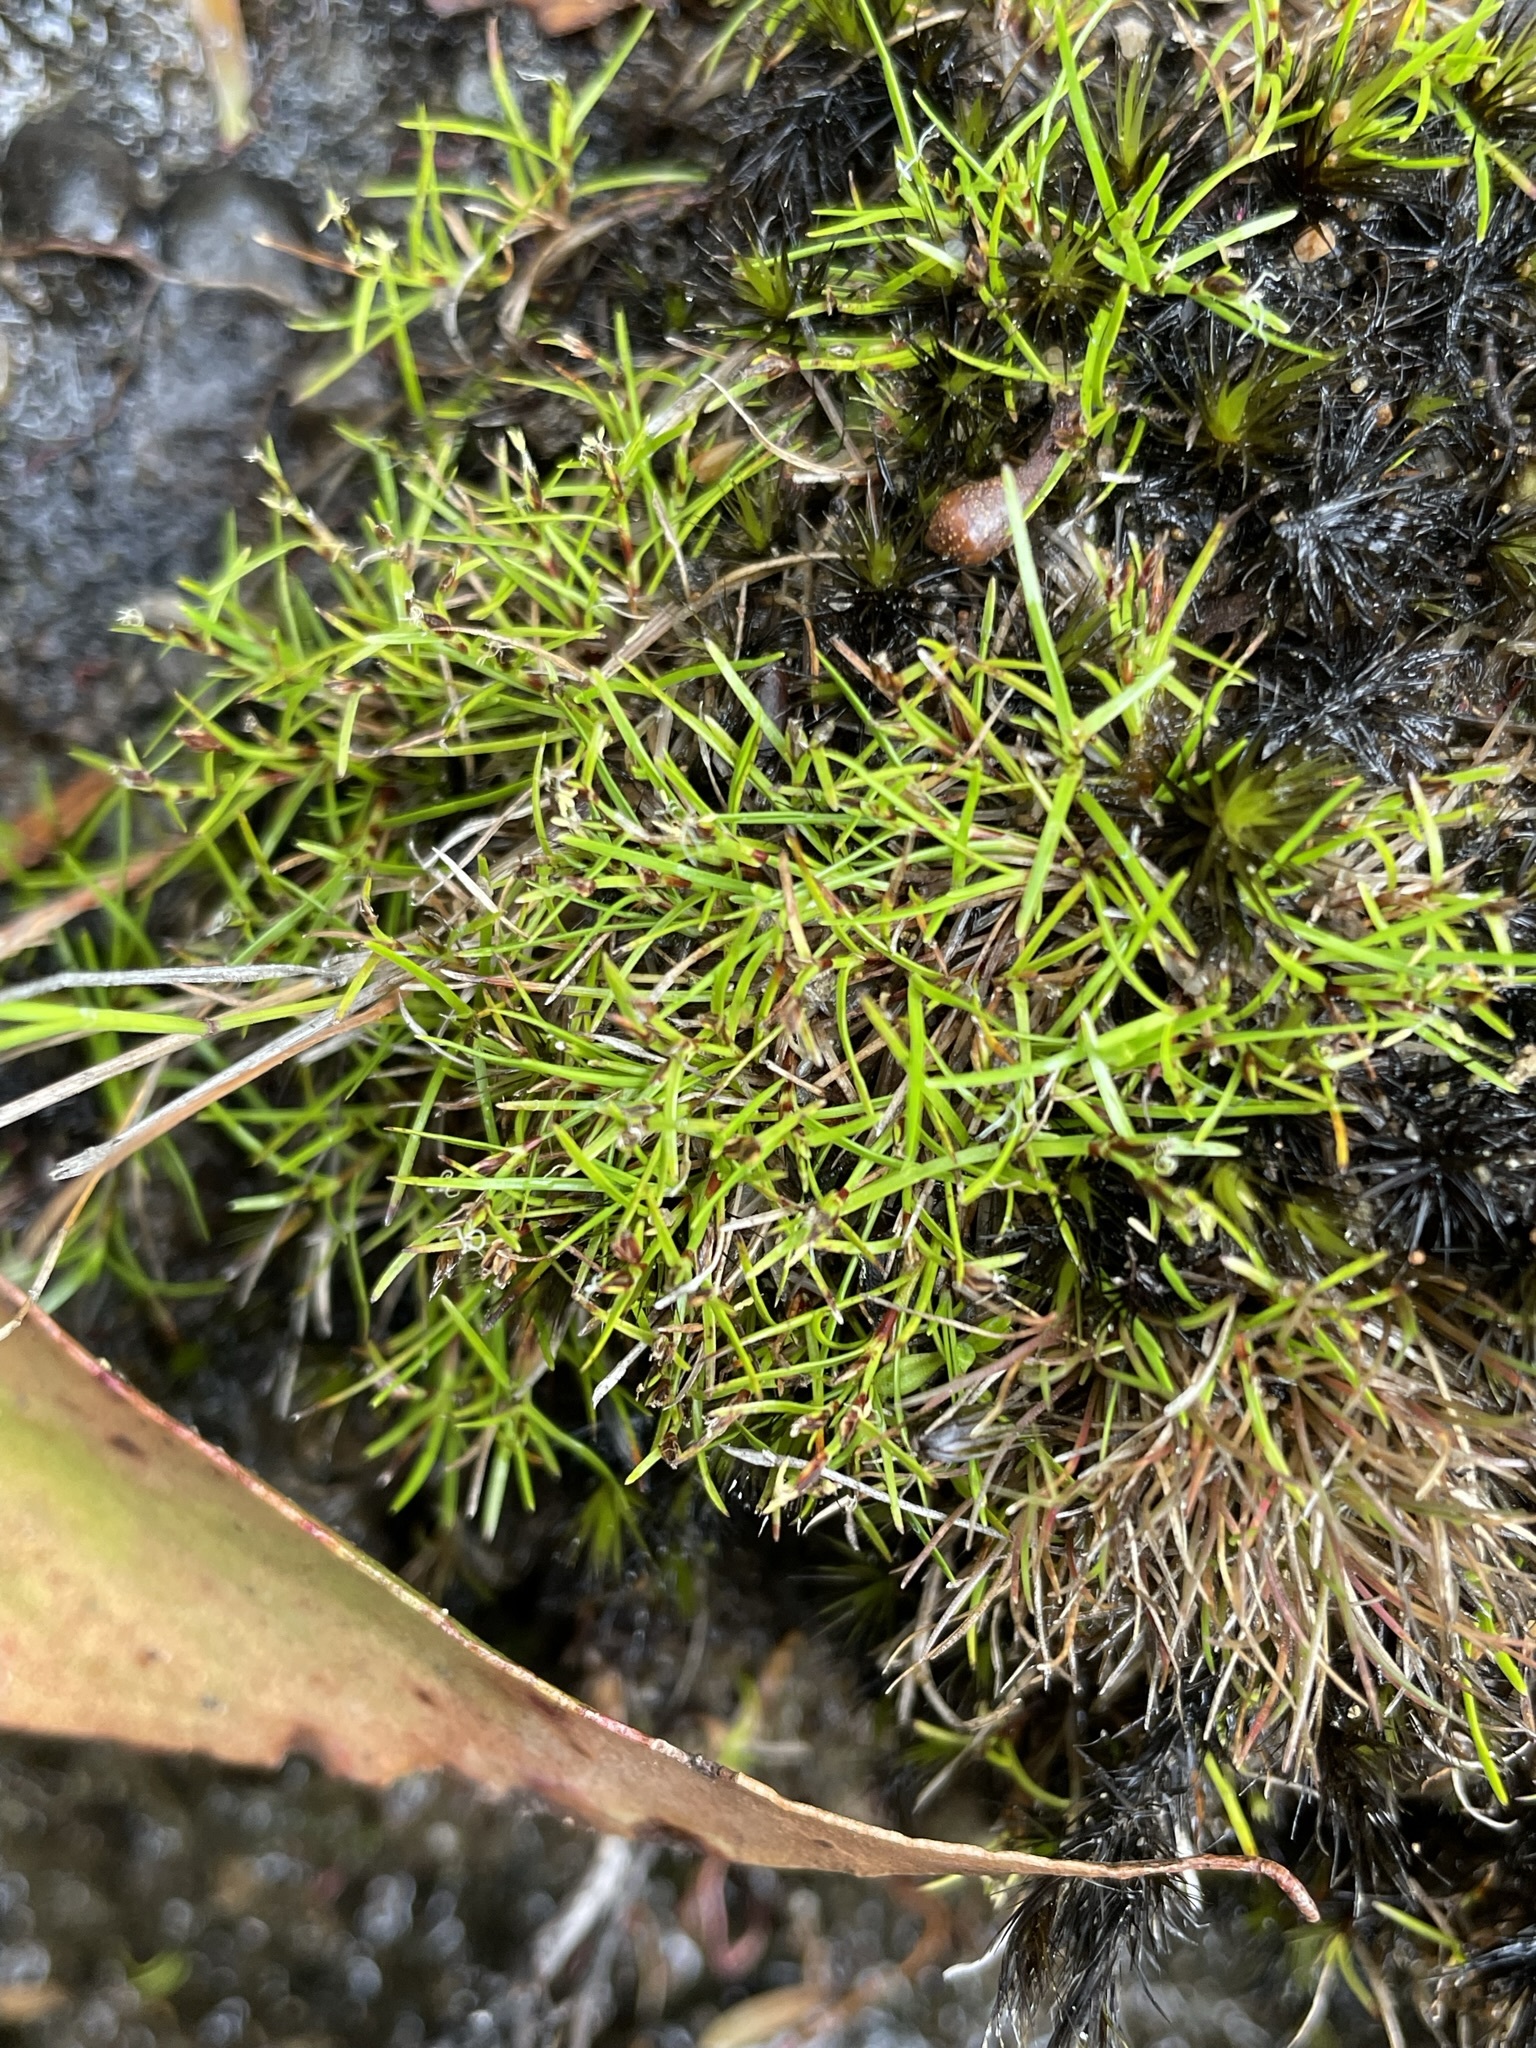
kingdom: Plantae
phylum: Tracheophyta
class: Liliopsida
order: Poales
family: Cyperaceae
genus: Schoenus
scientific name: Schoenus maschalinus
